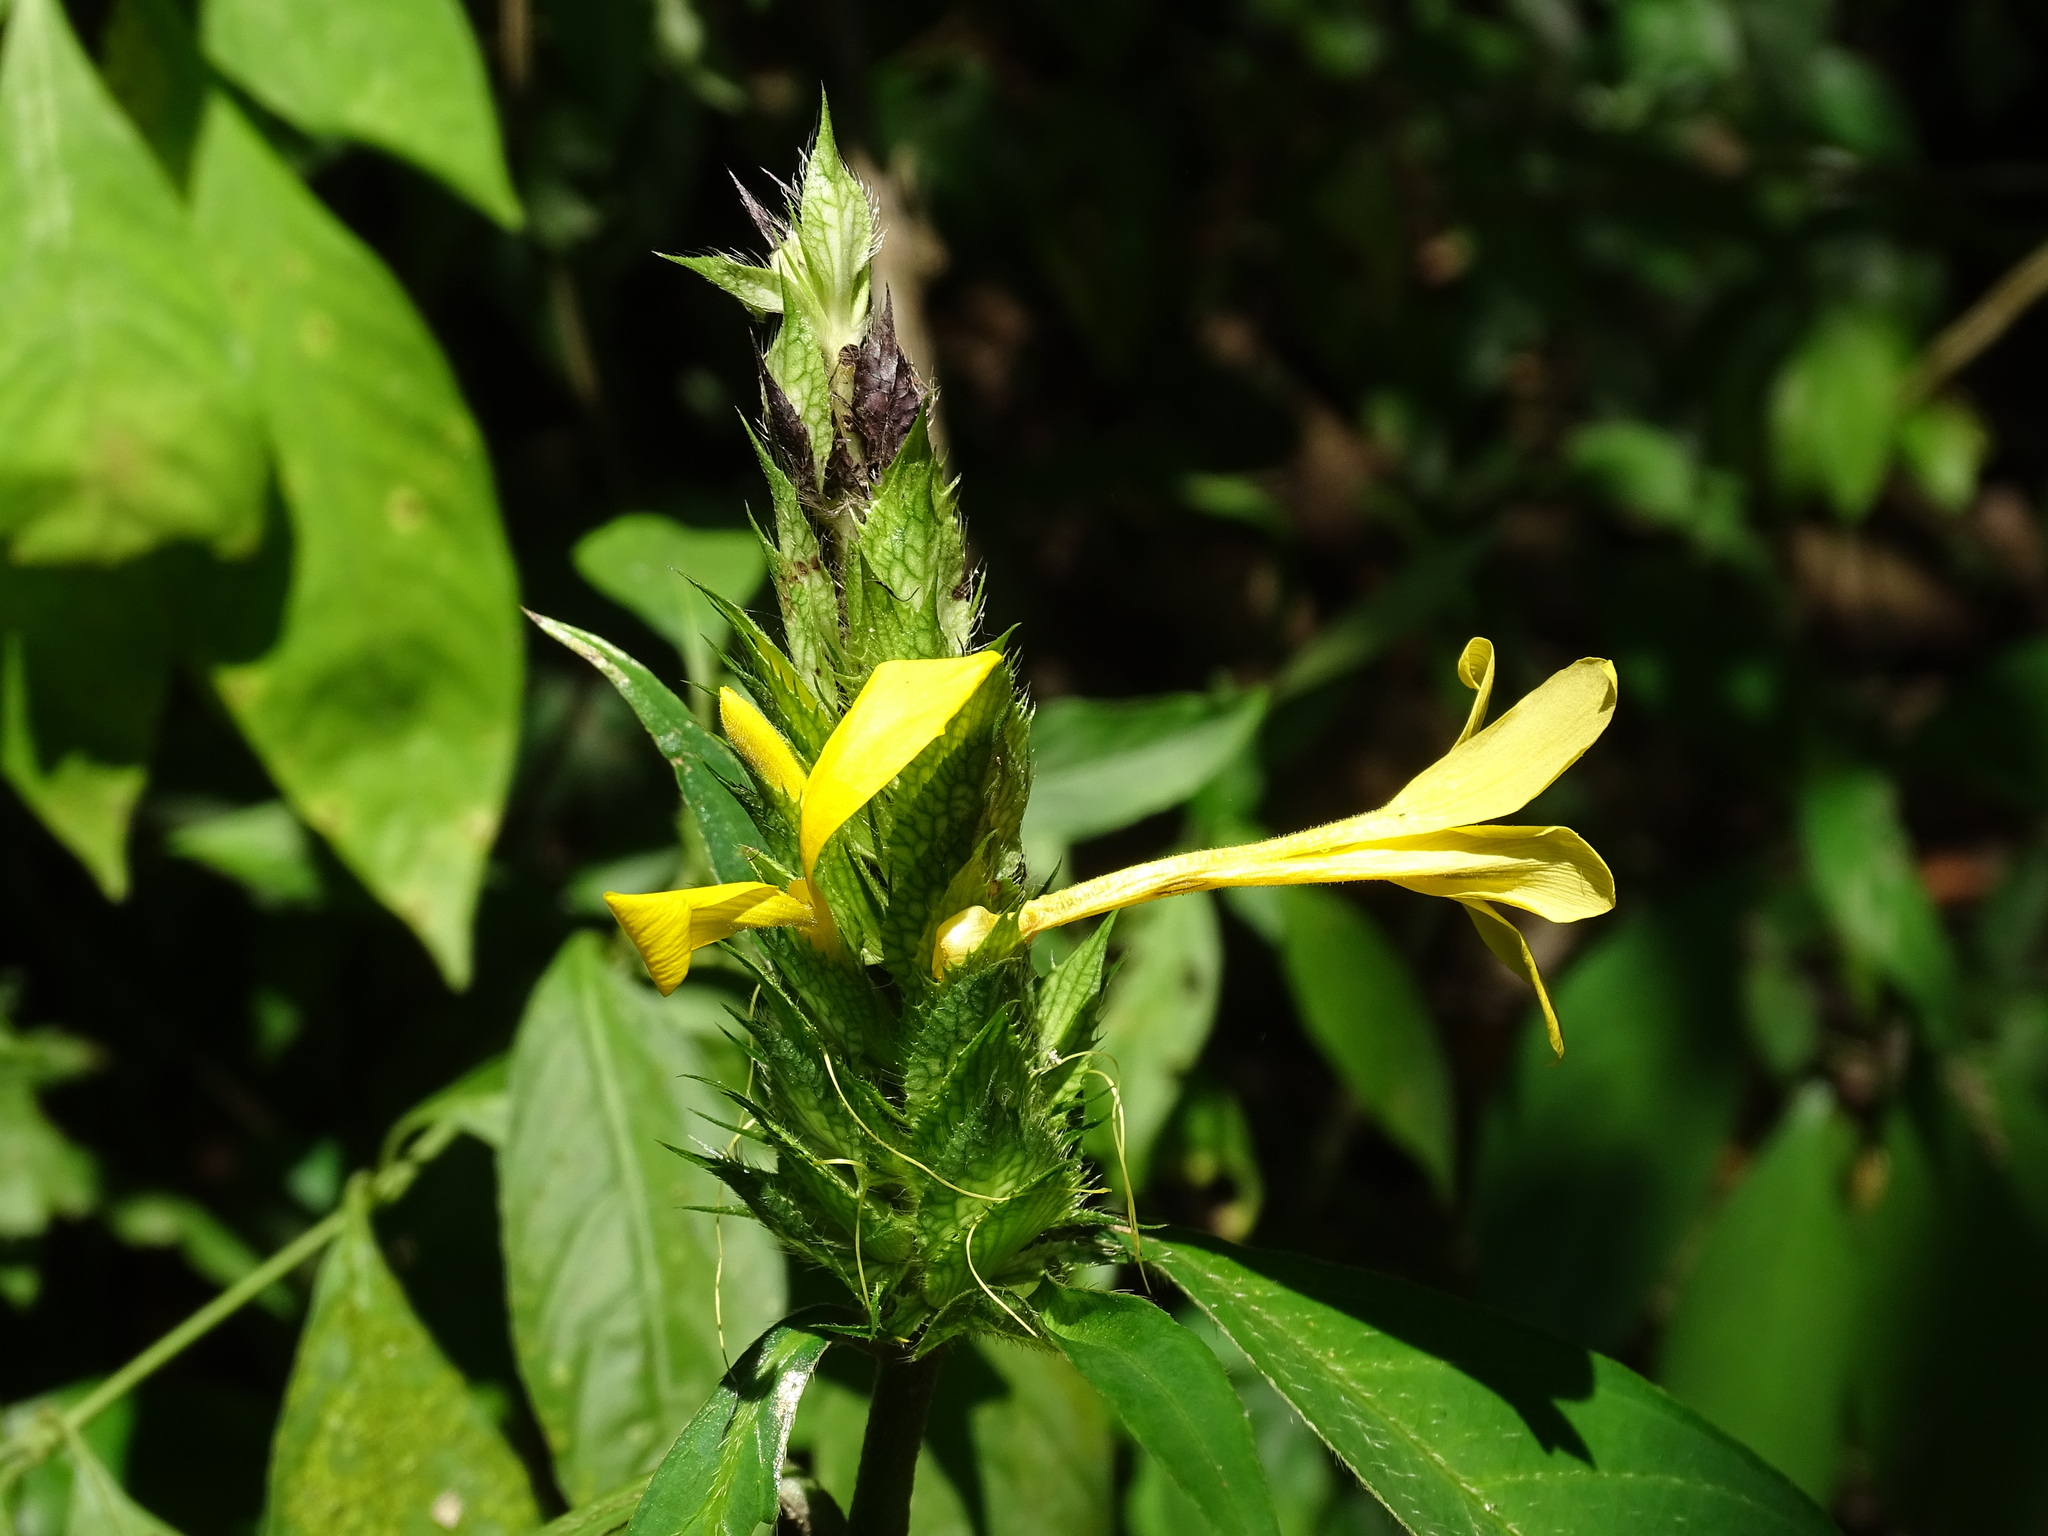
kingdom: Plantae
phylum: Tracheophyta
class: Magnoliopsida
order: Lamiales
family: Acanthaceae
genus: Barleria
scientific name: Barleria oenotheroides
